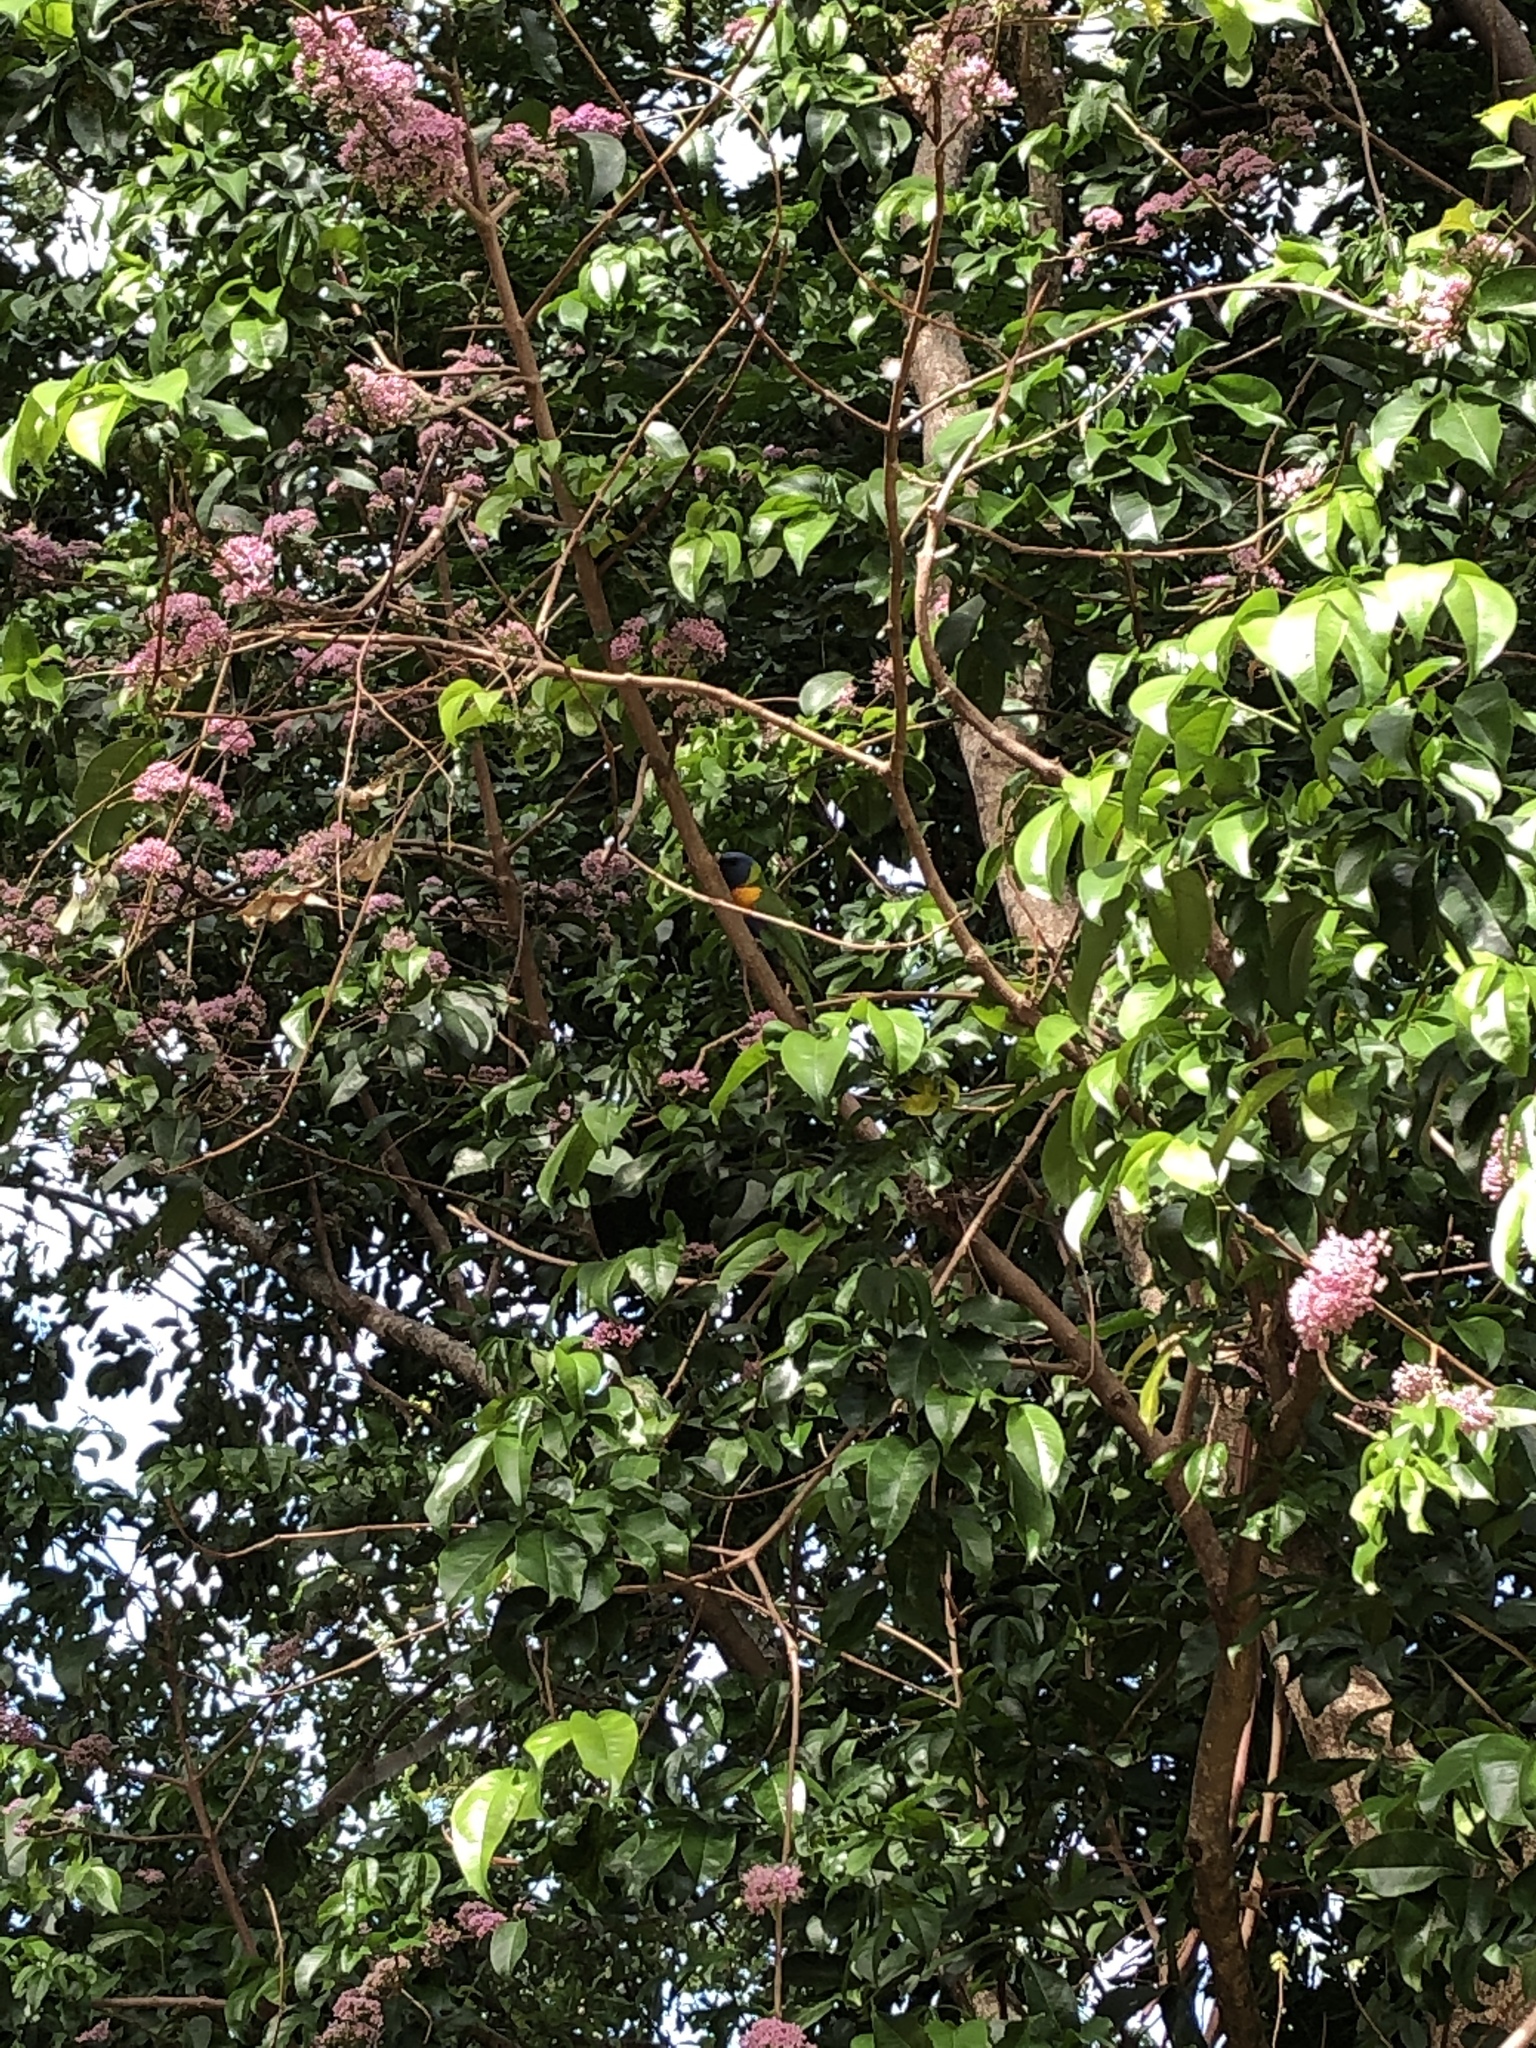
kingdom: Animalia
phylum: Chordata
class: Aves
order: Psittaciformes
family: Psittacidae
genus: Trichoglossus
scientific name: Trichoglossus haematodus
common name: Coconut lorikeet
